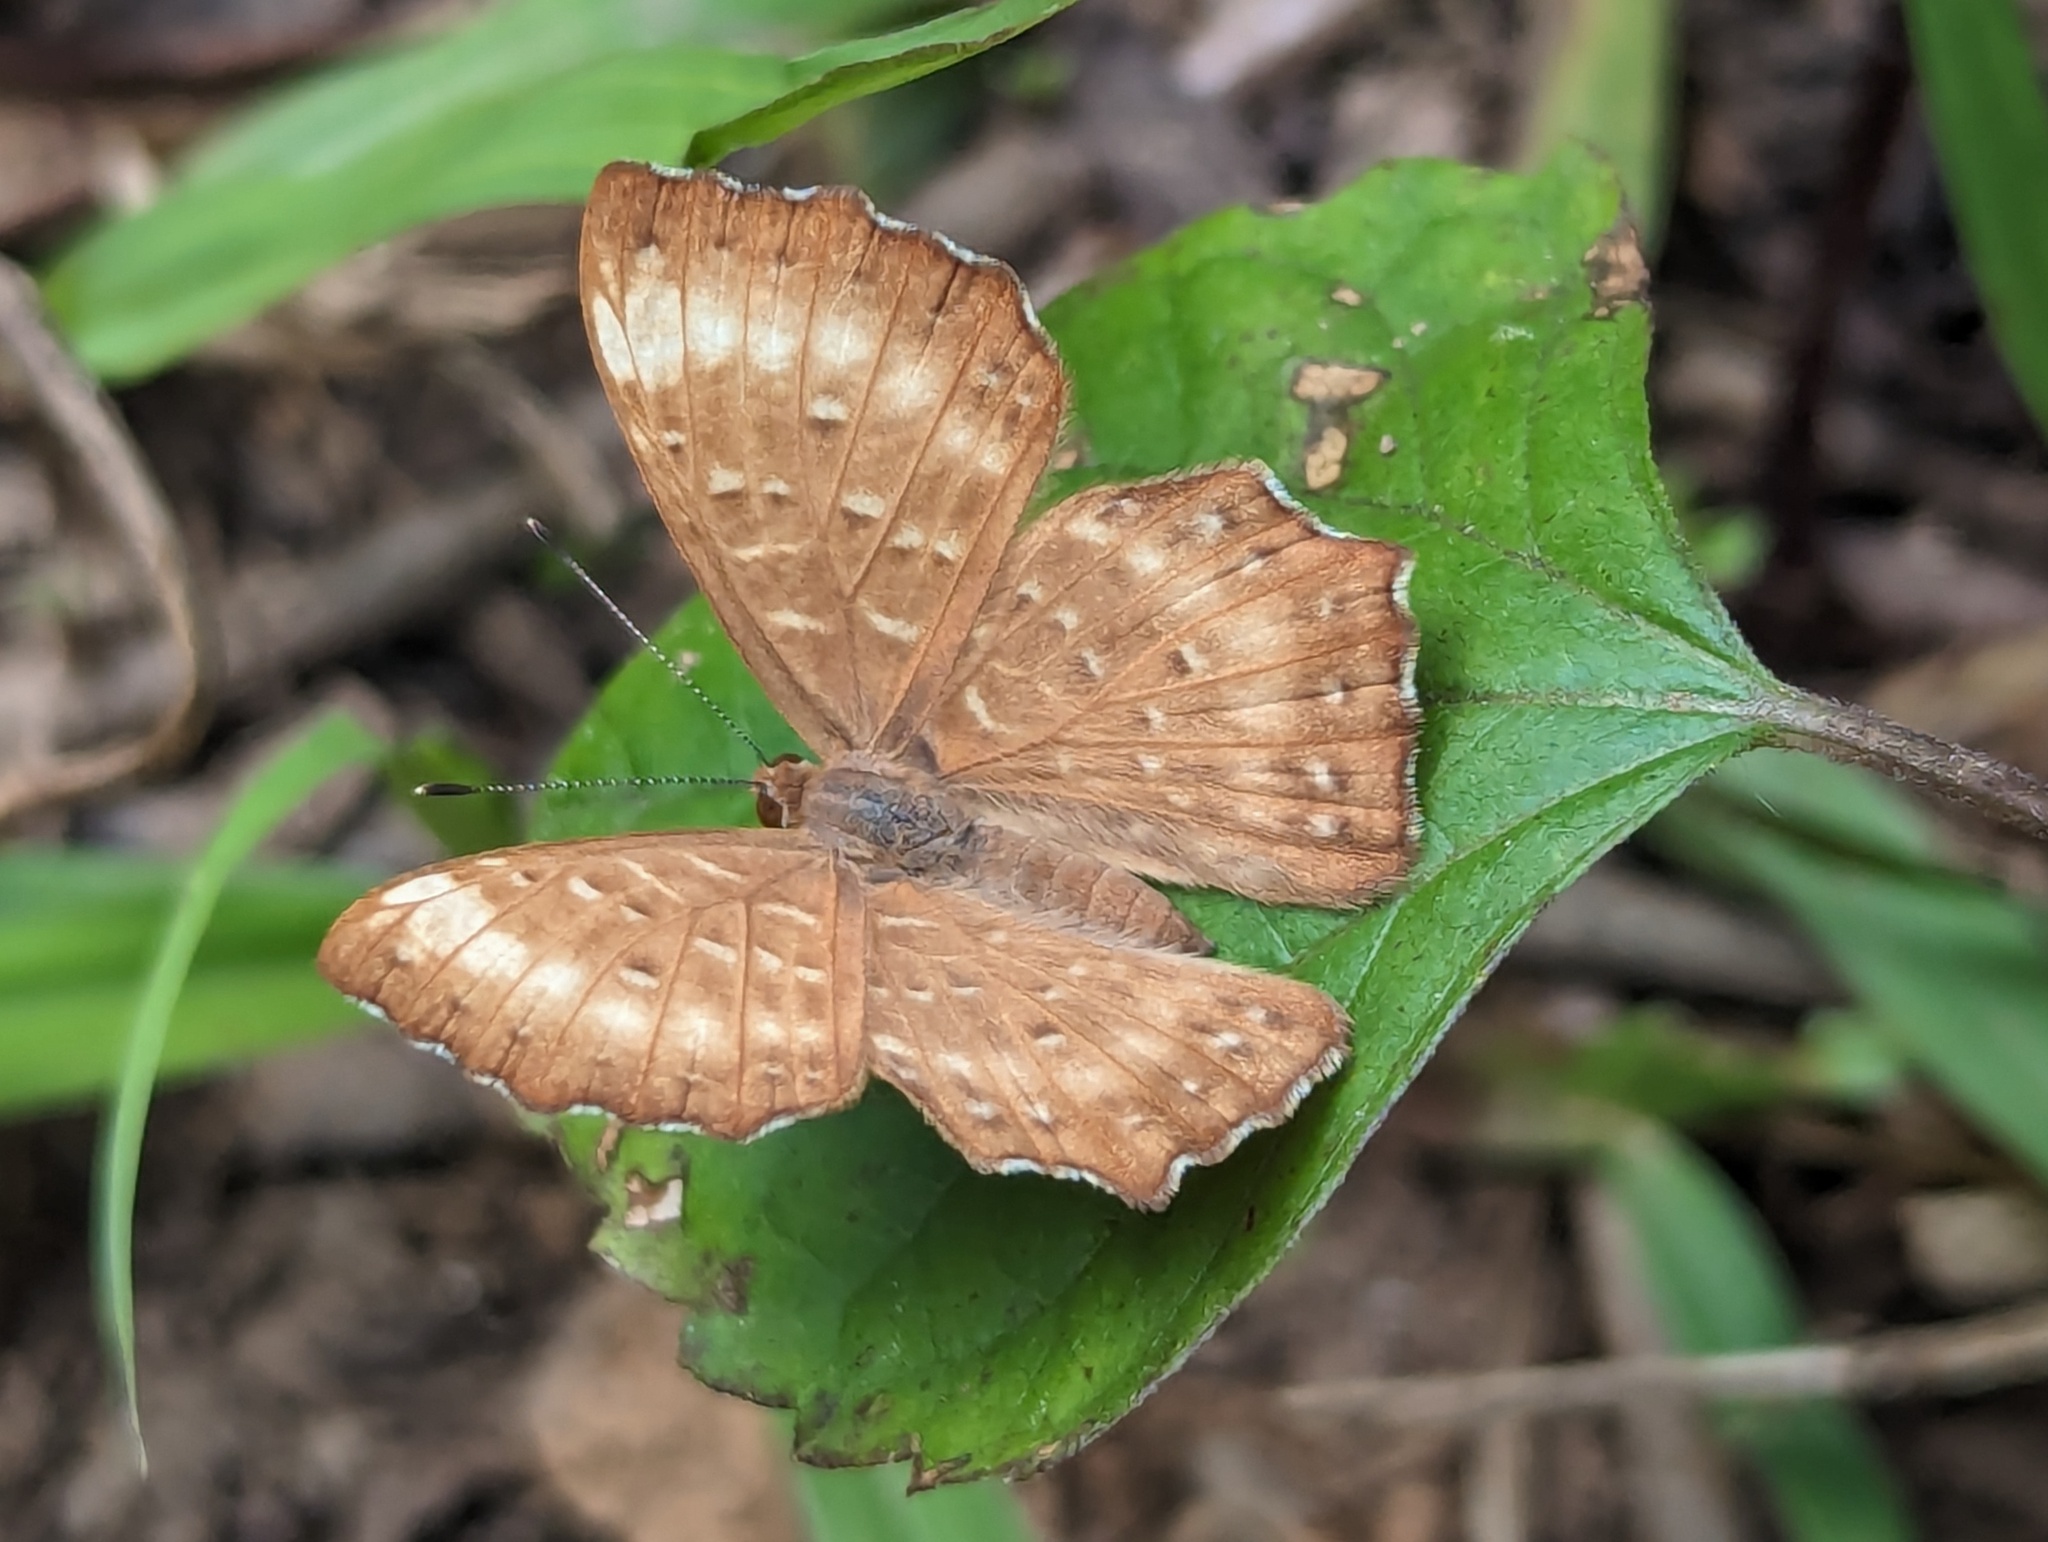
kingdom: Animalia
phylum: Arthropoda
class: Insecta
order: Lepidoptera
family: Riodinidae
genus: Zemeros
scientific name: Zemeros flegyas
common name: Punchinello
